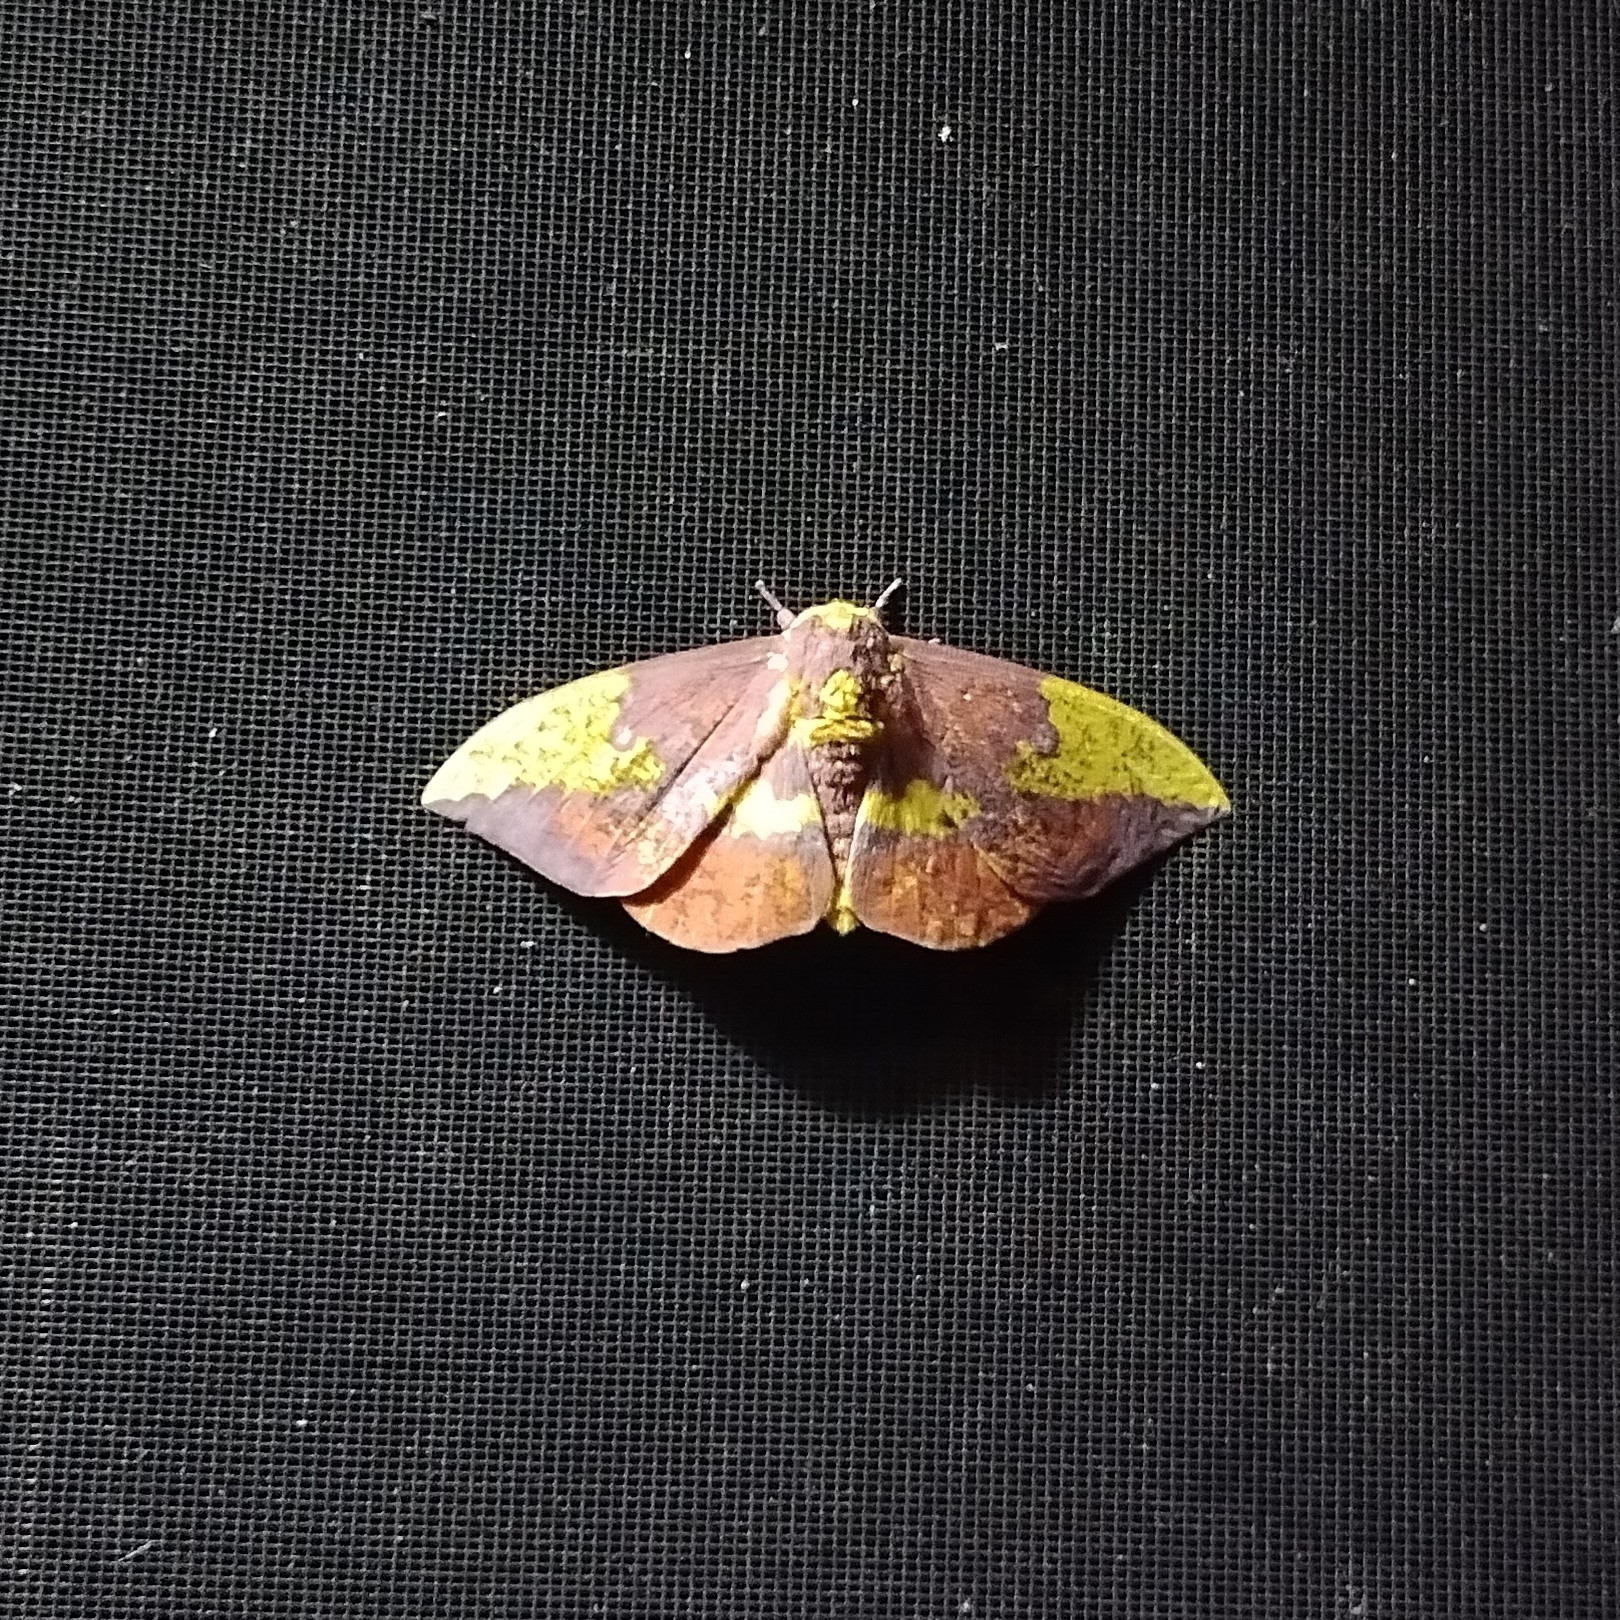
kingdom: Animalia
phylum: Arthropoda
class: Insecta
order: Lepidoptera
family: Saturniidae
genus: Eacles
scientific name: Eacles imperialis
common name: Imperial moth
